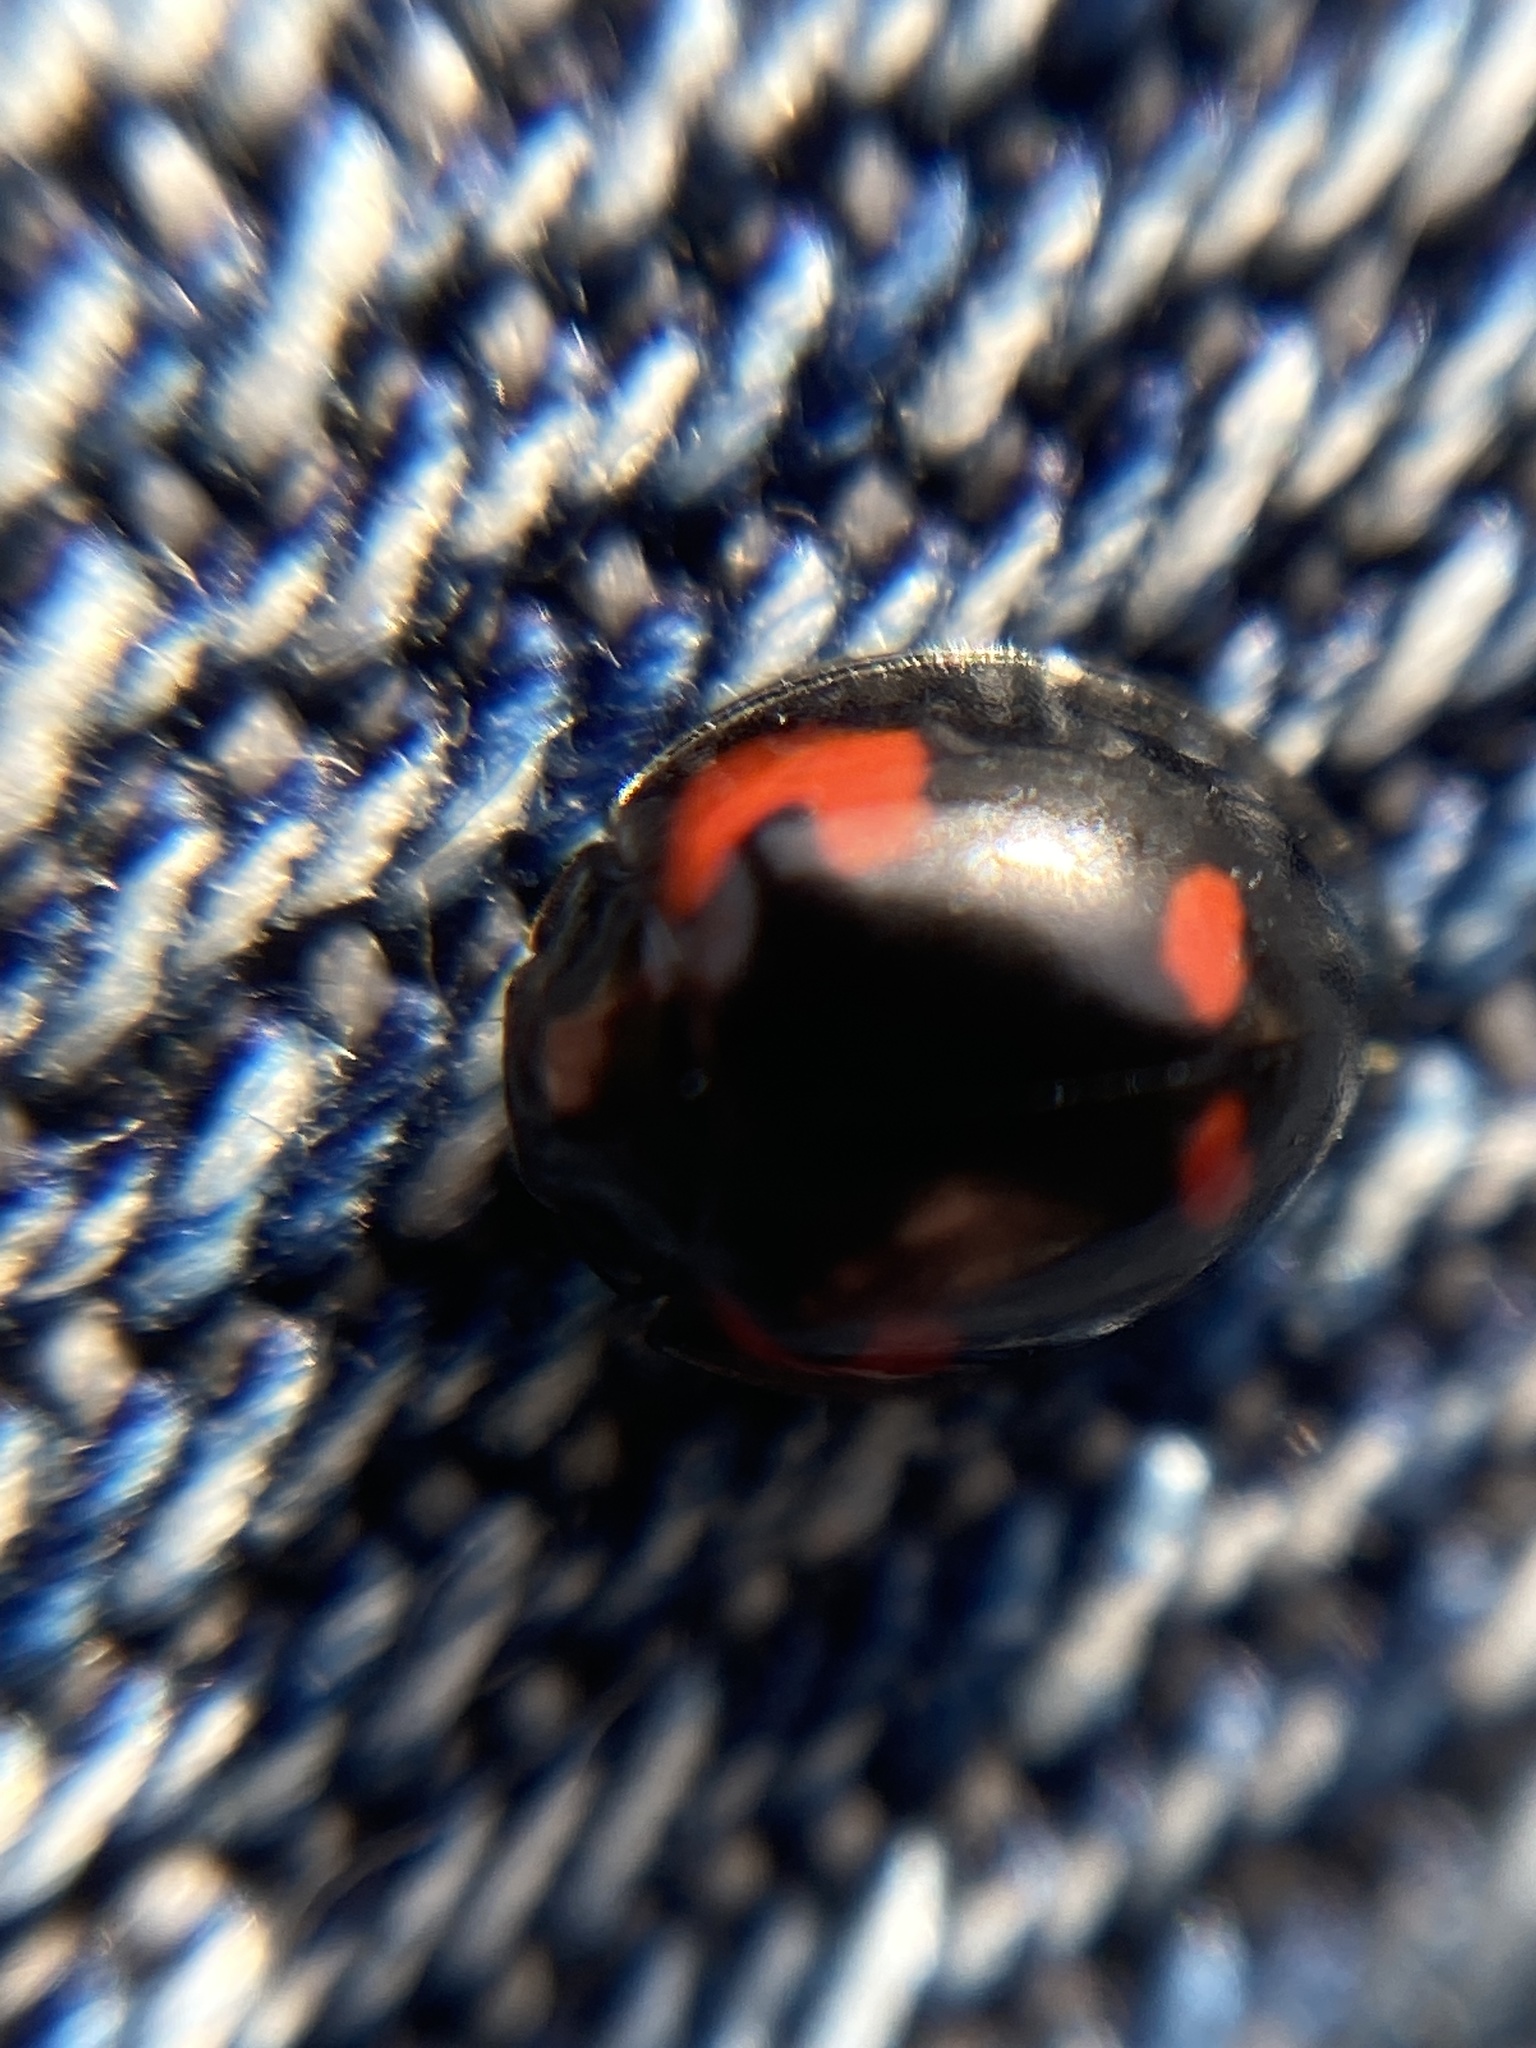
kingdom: Animalia
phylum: Arthropoda
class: Insecta
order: Coleoptera
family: Coccinellidae
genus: Brumus
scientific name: Brumus quadripustulatus
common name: Ladybird beetle
